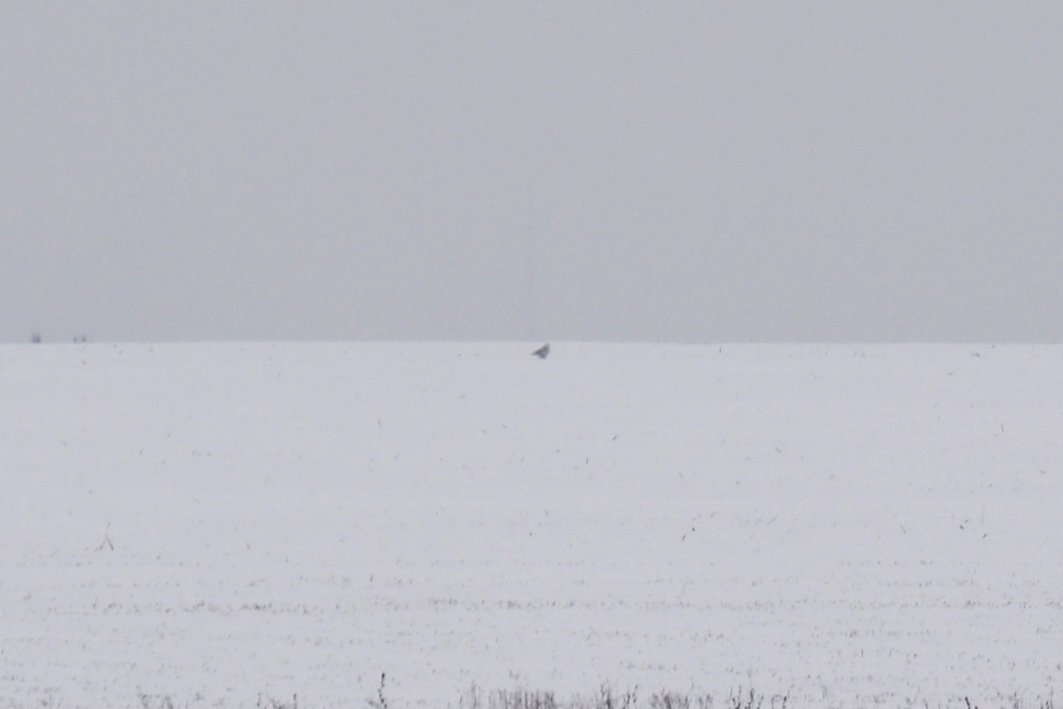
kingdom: Animalia
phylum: Chordata
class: Aves
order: Strigiformes
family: Strigidae
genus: Bubo
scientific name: Bubo scandiacus
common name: Snowy owl
